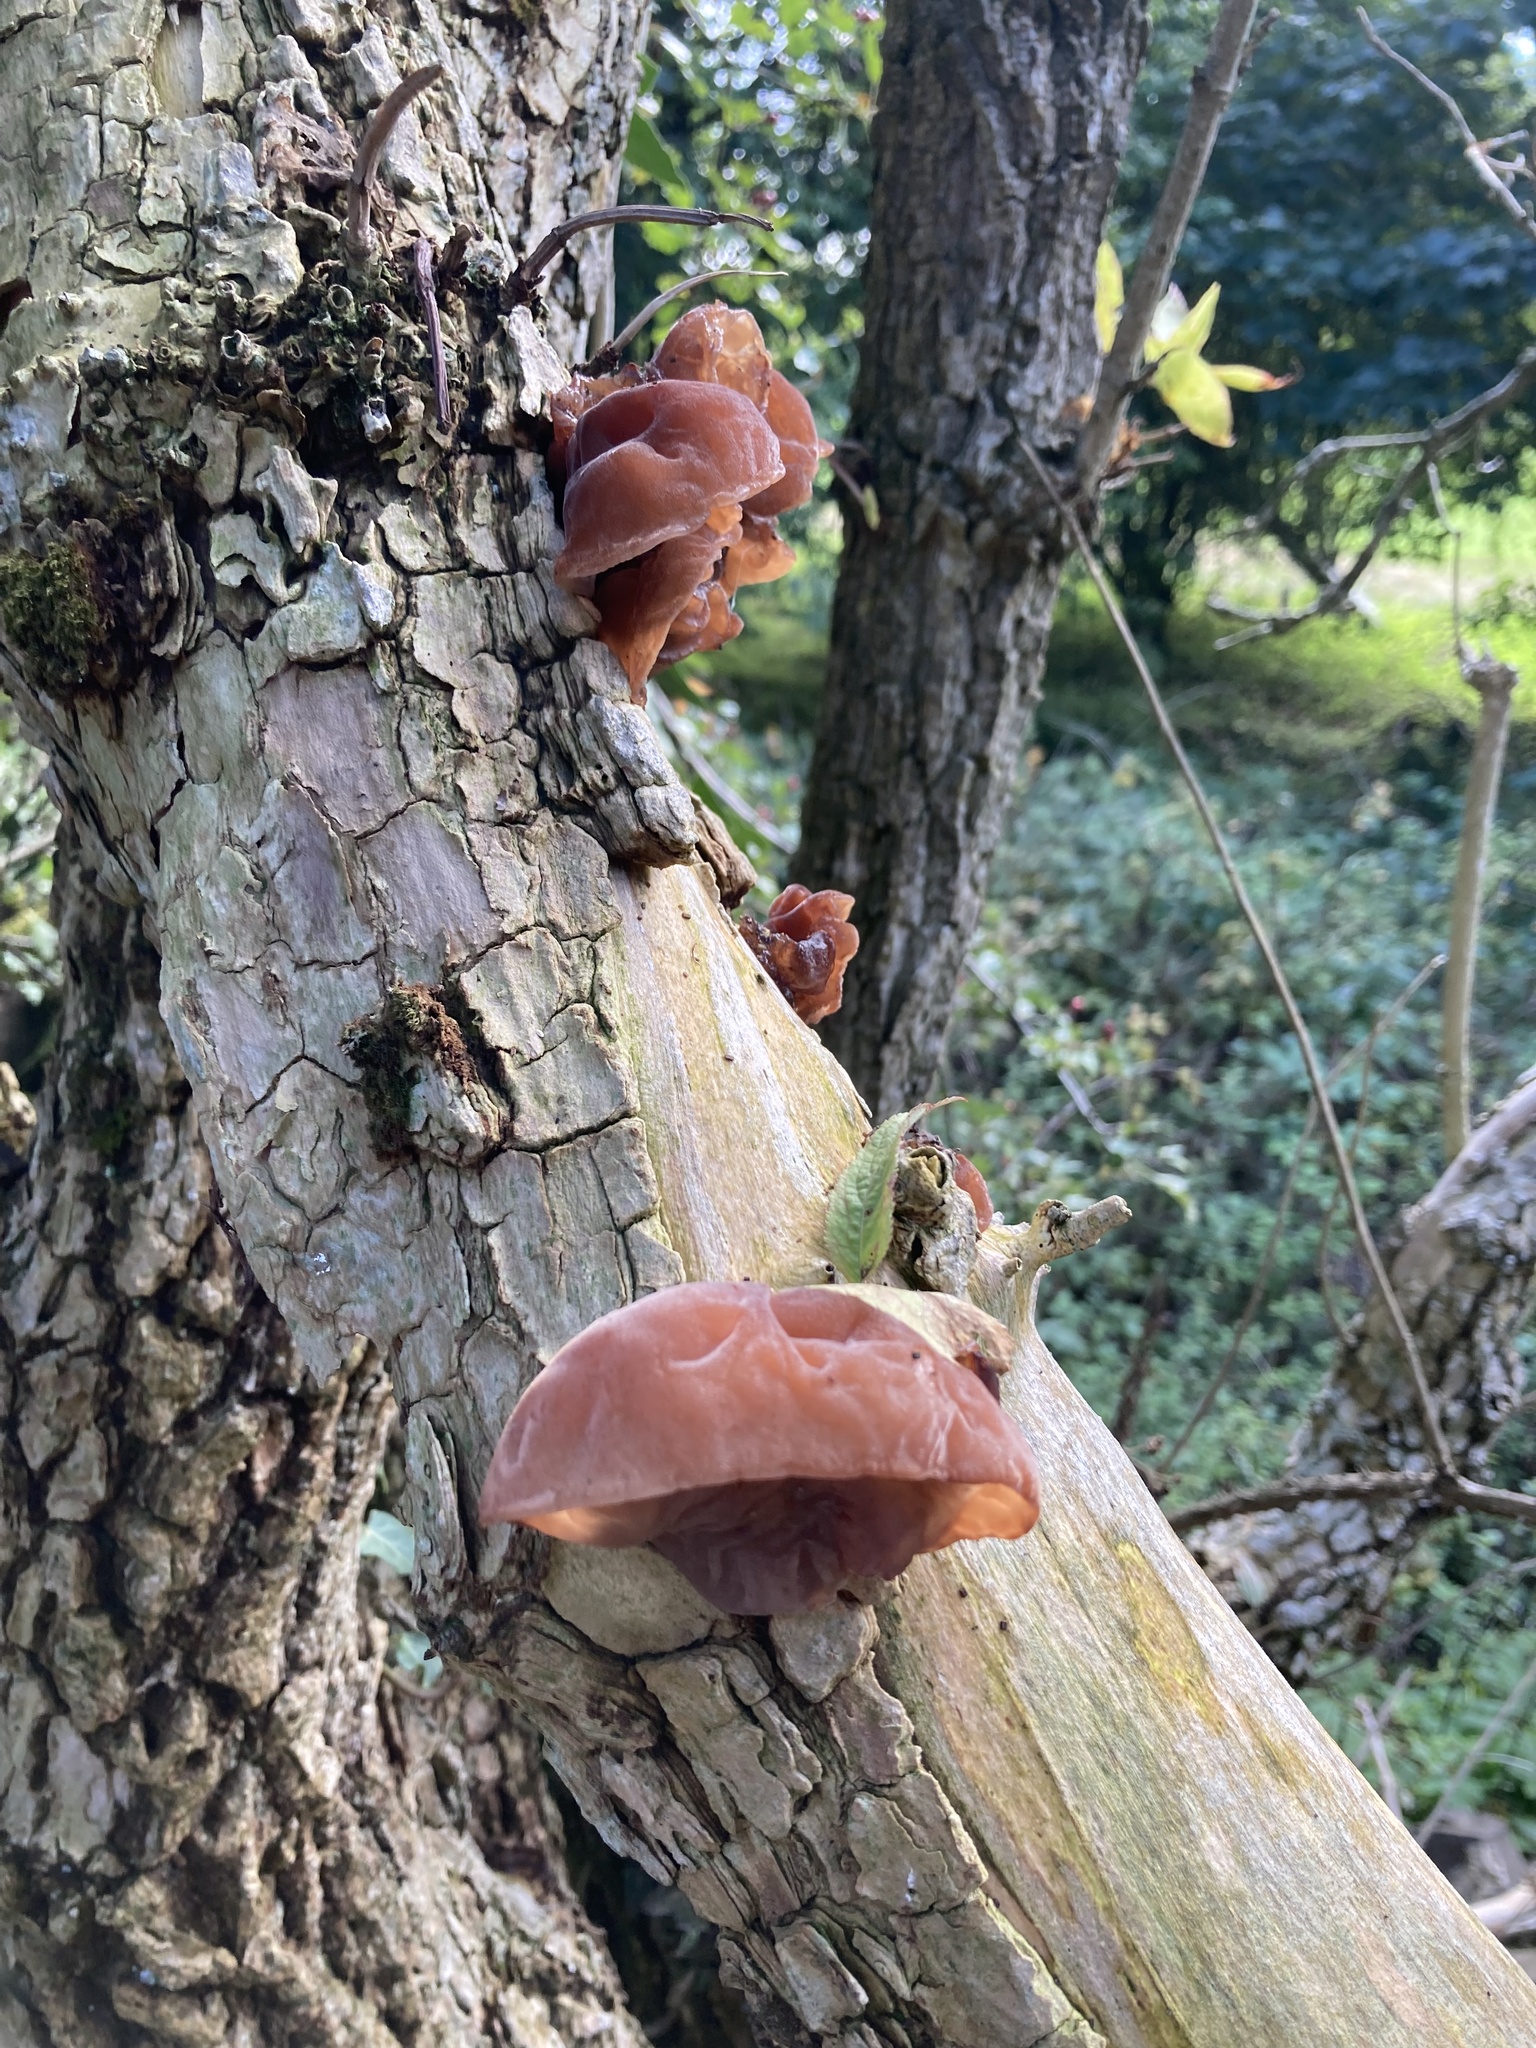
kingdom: Fungi
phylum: Basidiomycota
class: Agaricomycetes
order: Auriculariales
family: Auriculariaceae
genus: Auricularia
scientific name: Auricularia auricula-judae
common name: Jelly ear
